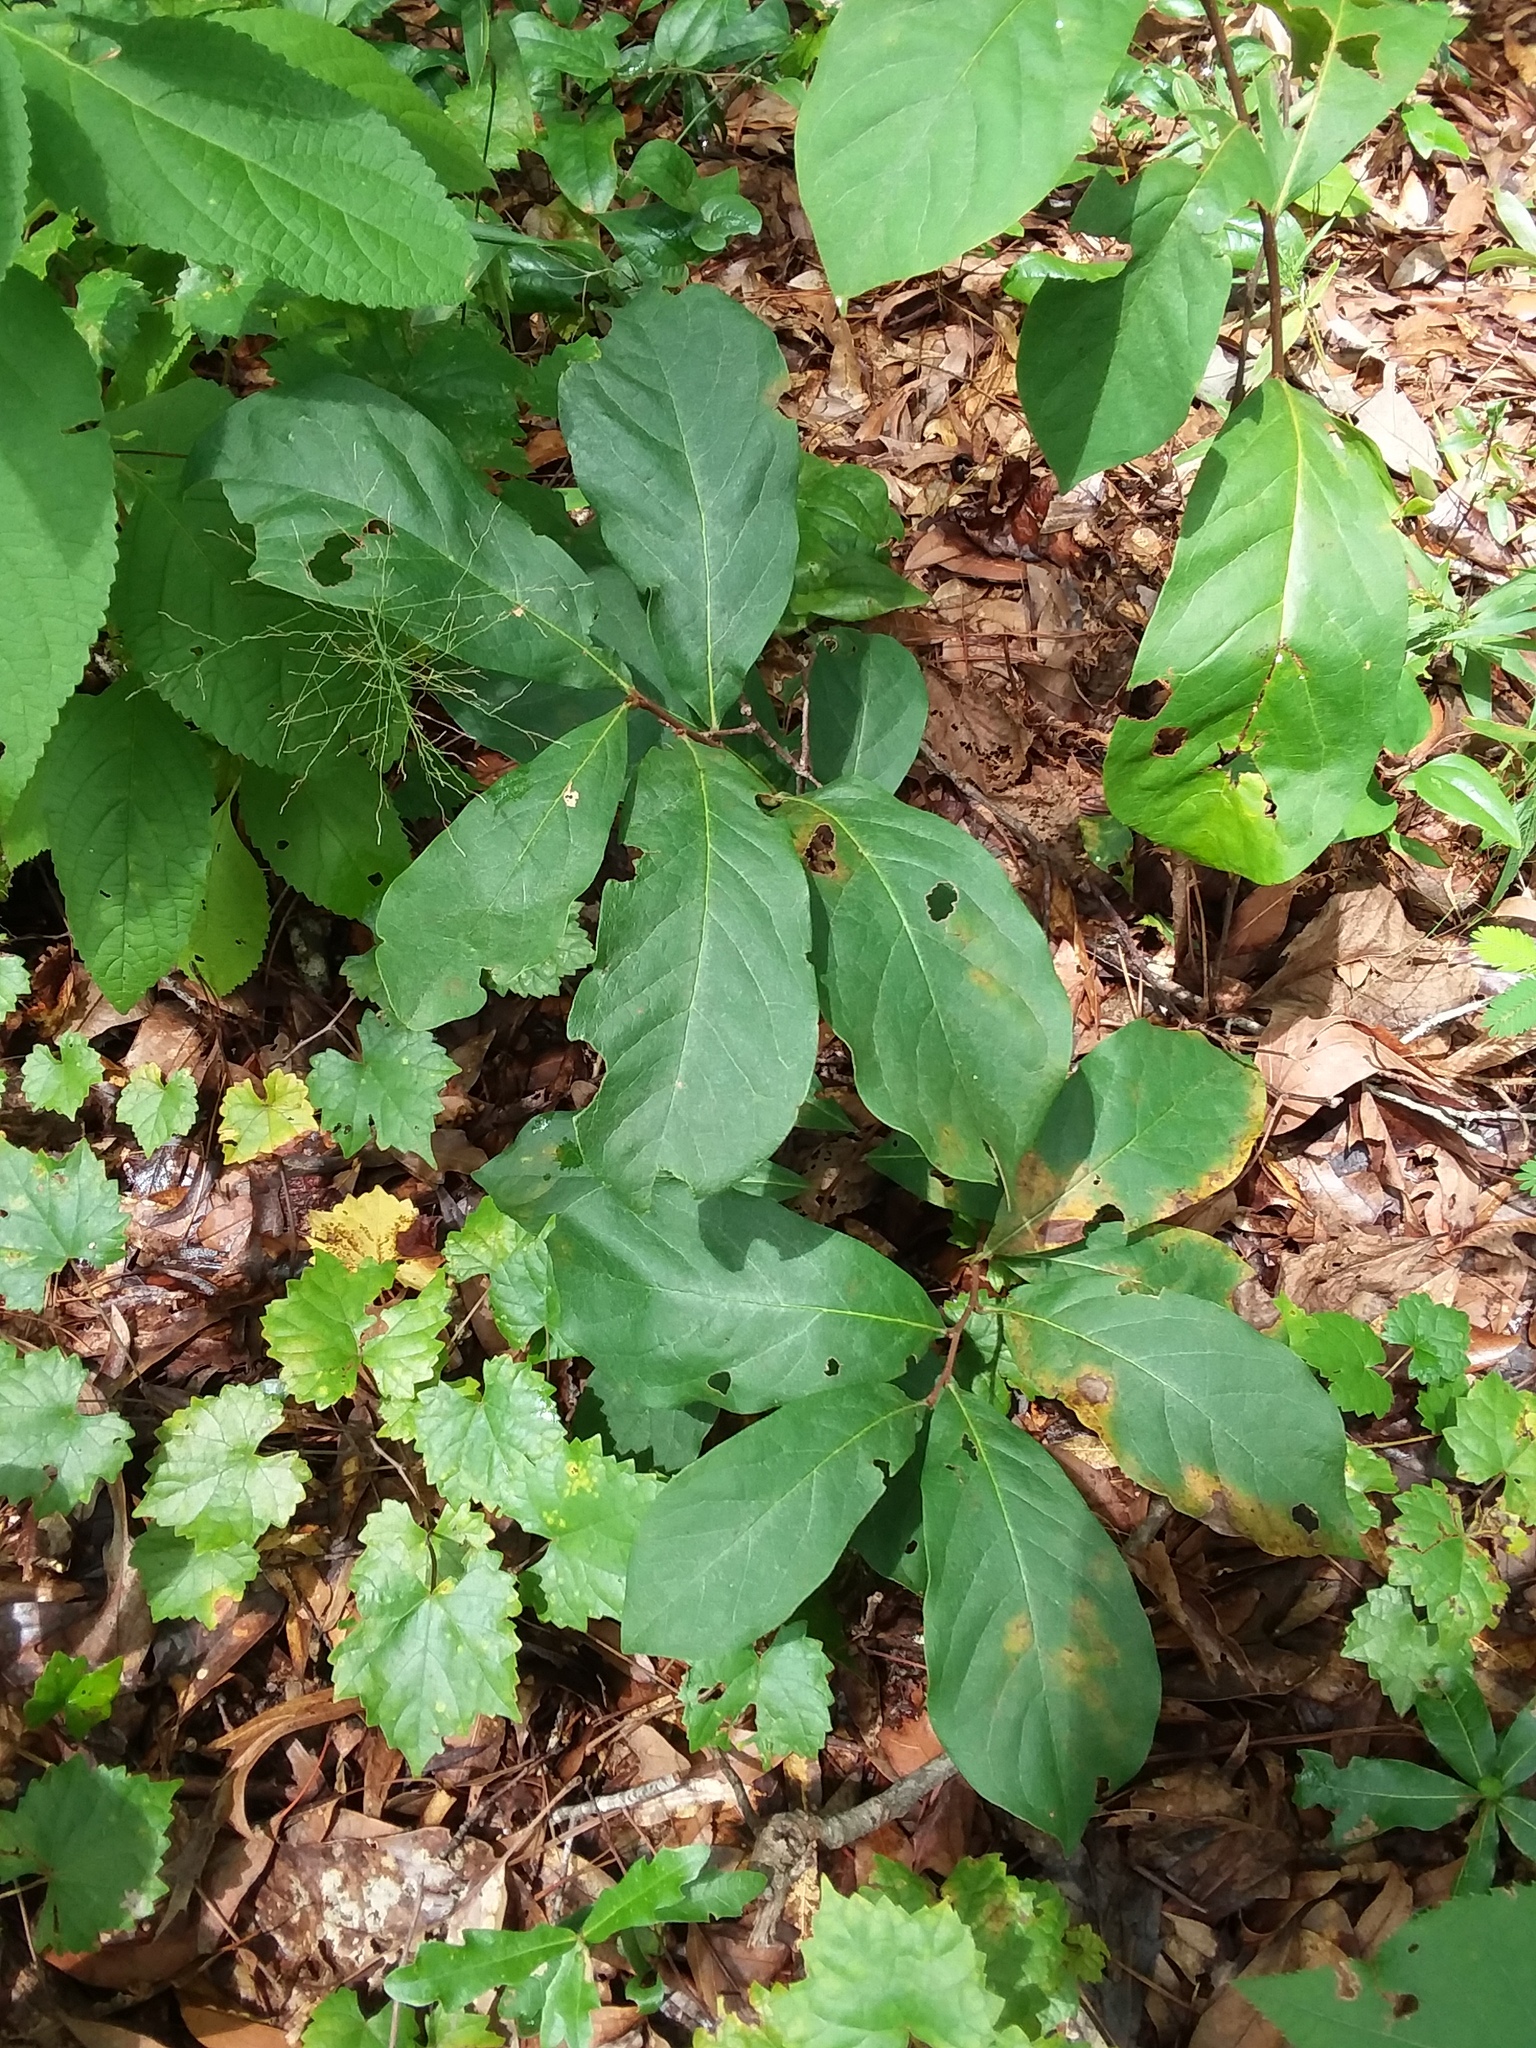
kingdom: Plantae
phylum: Tracheophyta
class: Magnoliopsida
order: Magnoliales
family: Annonaceae
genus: Asimina
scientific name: Asimina parviflora
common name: Dwarf pawpaw
